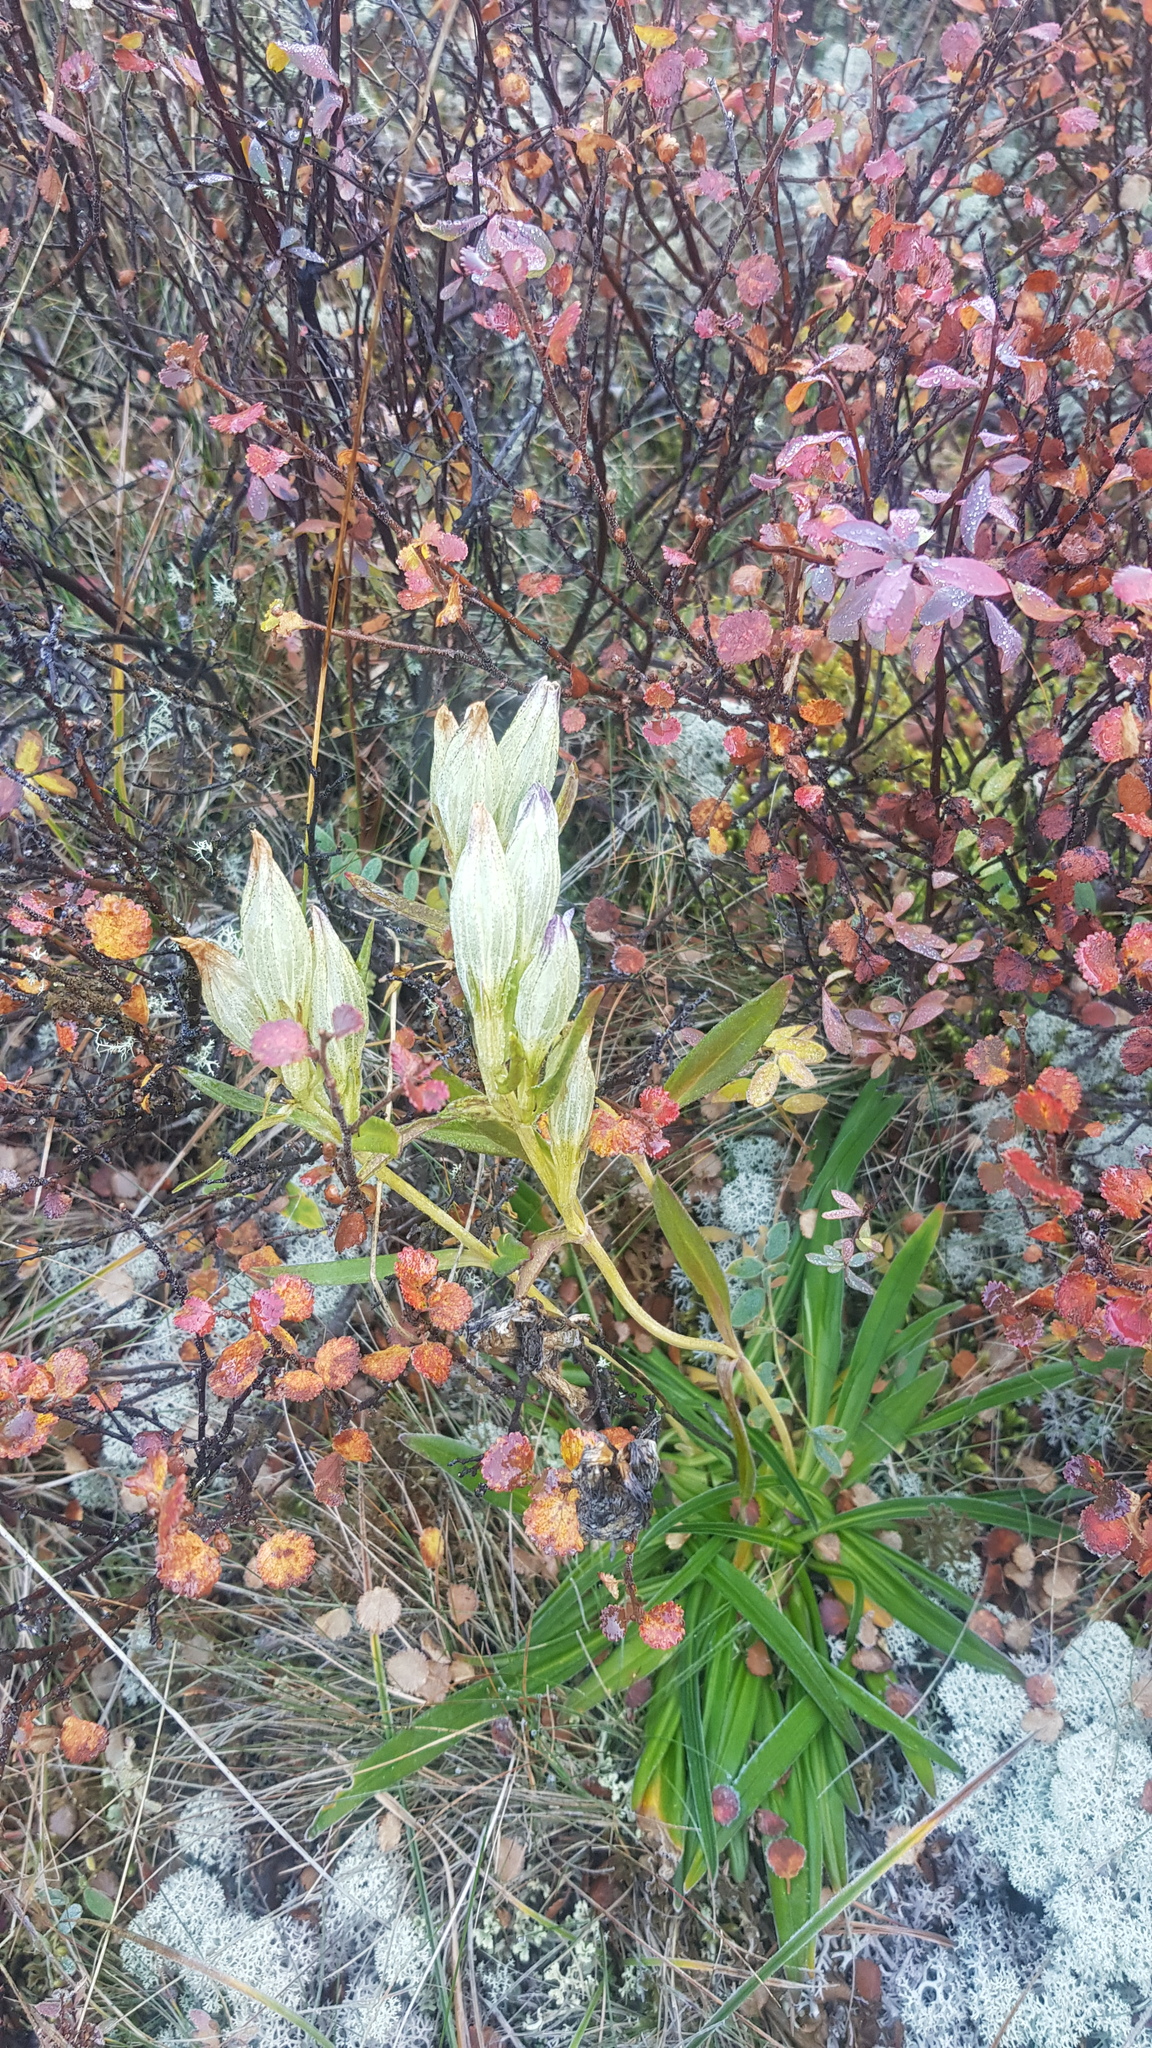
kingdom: Plantae
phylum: Tracheophyta
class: Magnoliopsida
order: Gentianales
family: Gentianaceae
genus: Gentiana
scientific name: Gentiana algida
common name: Arctic gentian
